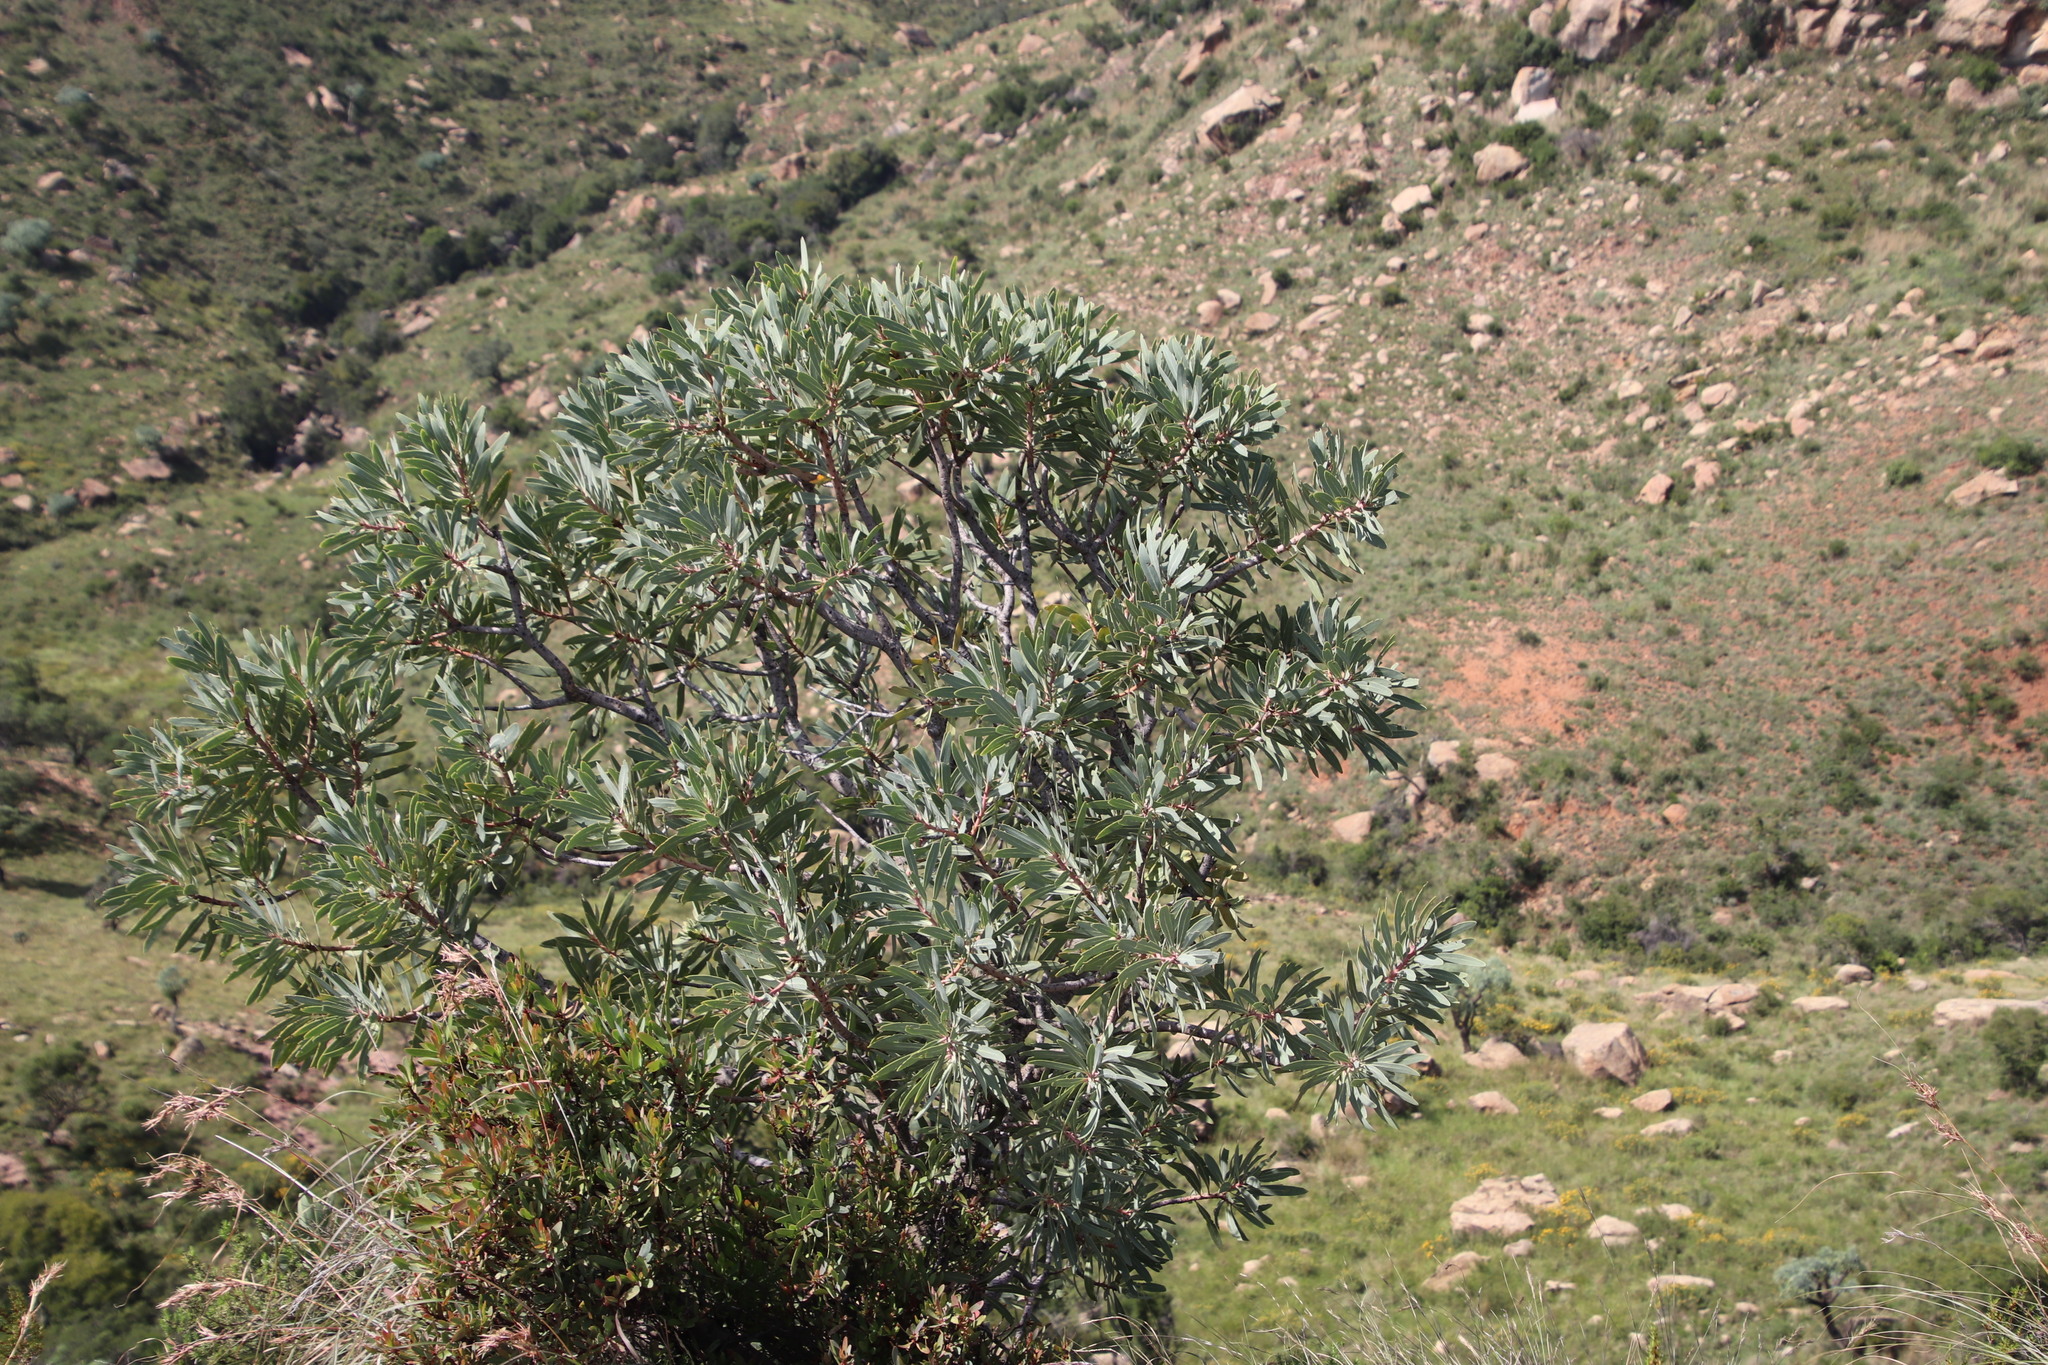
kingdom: Plantae
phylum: Tracheophyta
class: Magnoliopsida
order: Proteales
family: Proteaceae
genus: Protea
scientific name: Protea caffra
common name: Common sugarbush
